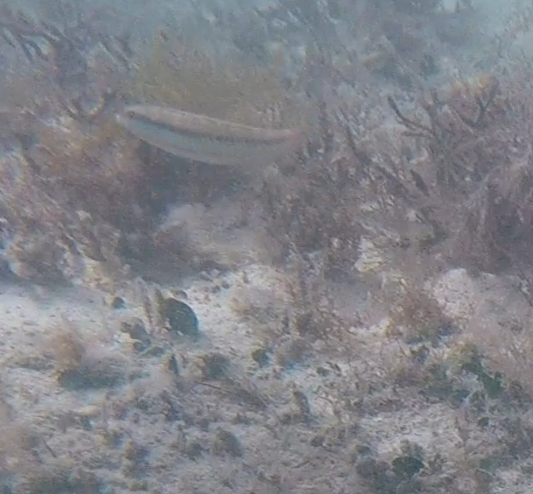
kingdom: Animalia
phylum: Chordata
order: Perciformes
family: Labridae
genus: Halichoeres
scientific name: Halichoeres bivittatus
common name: Slippery dick
